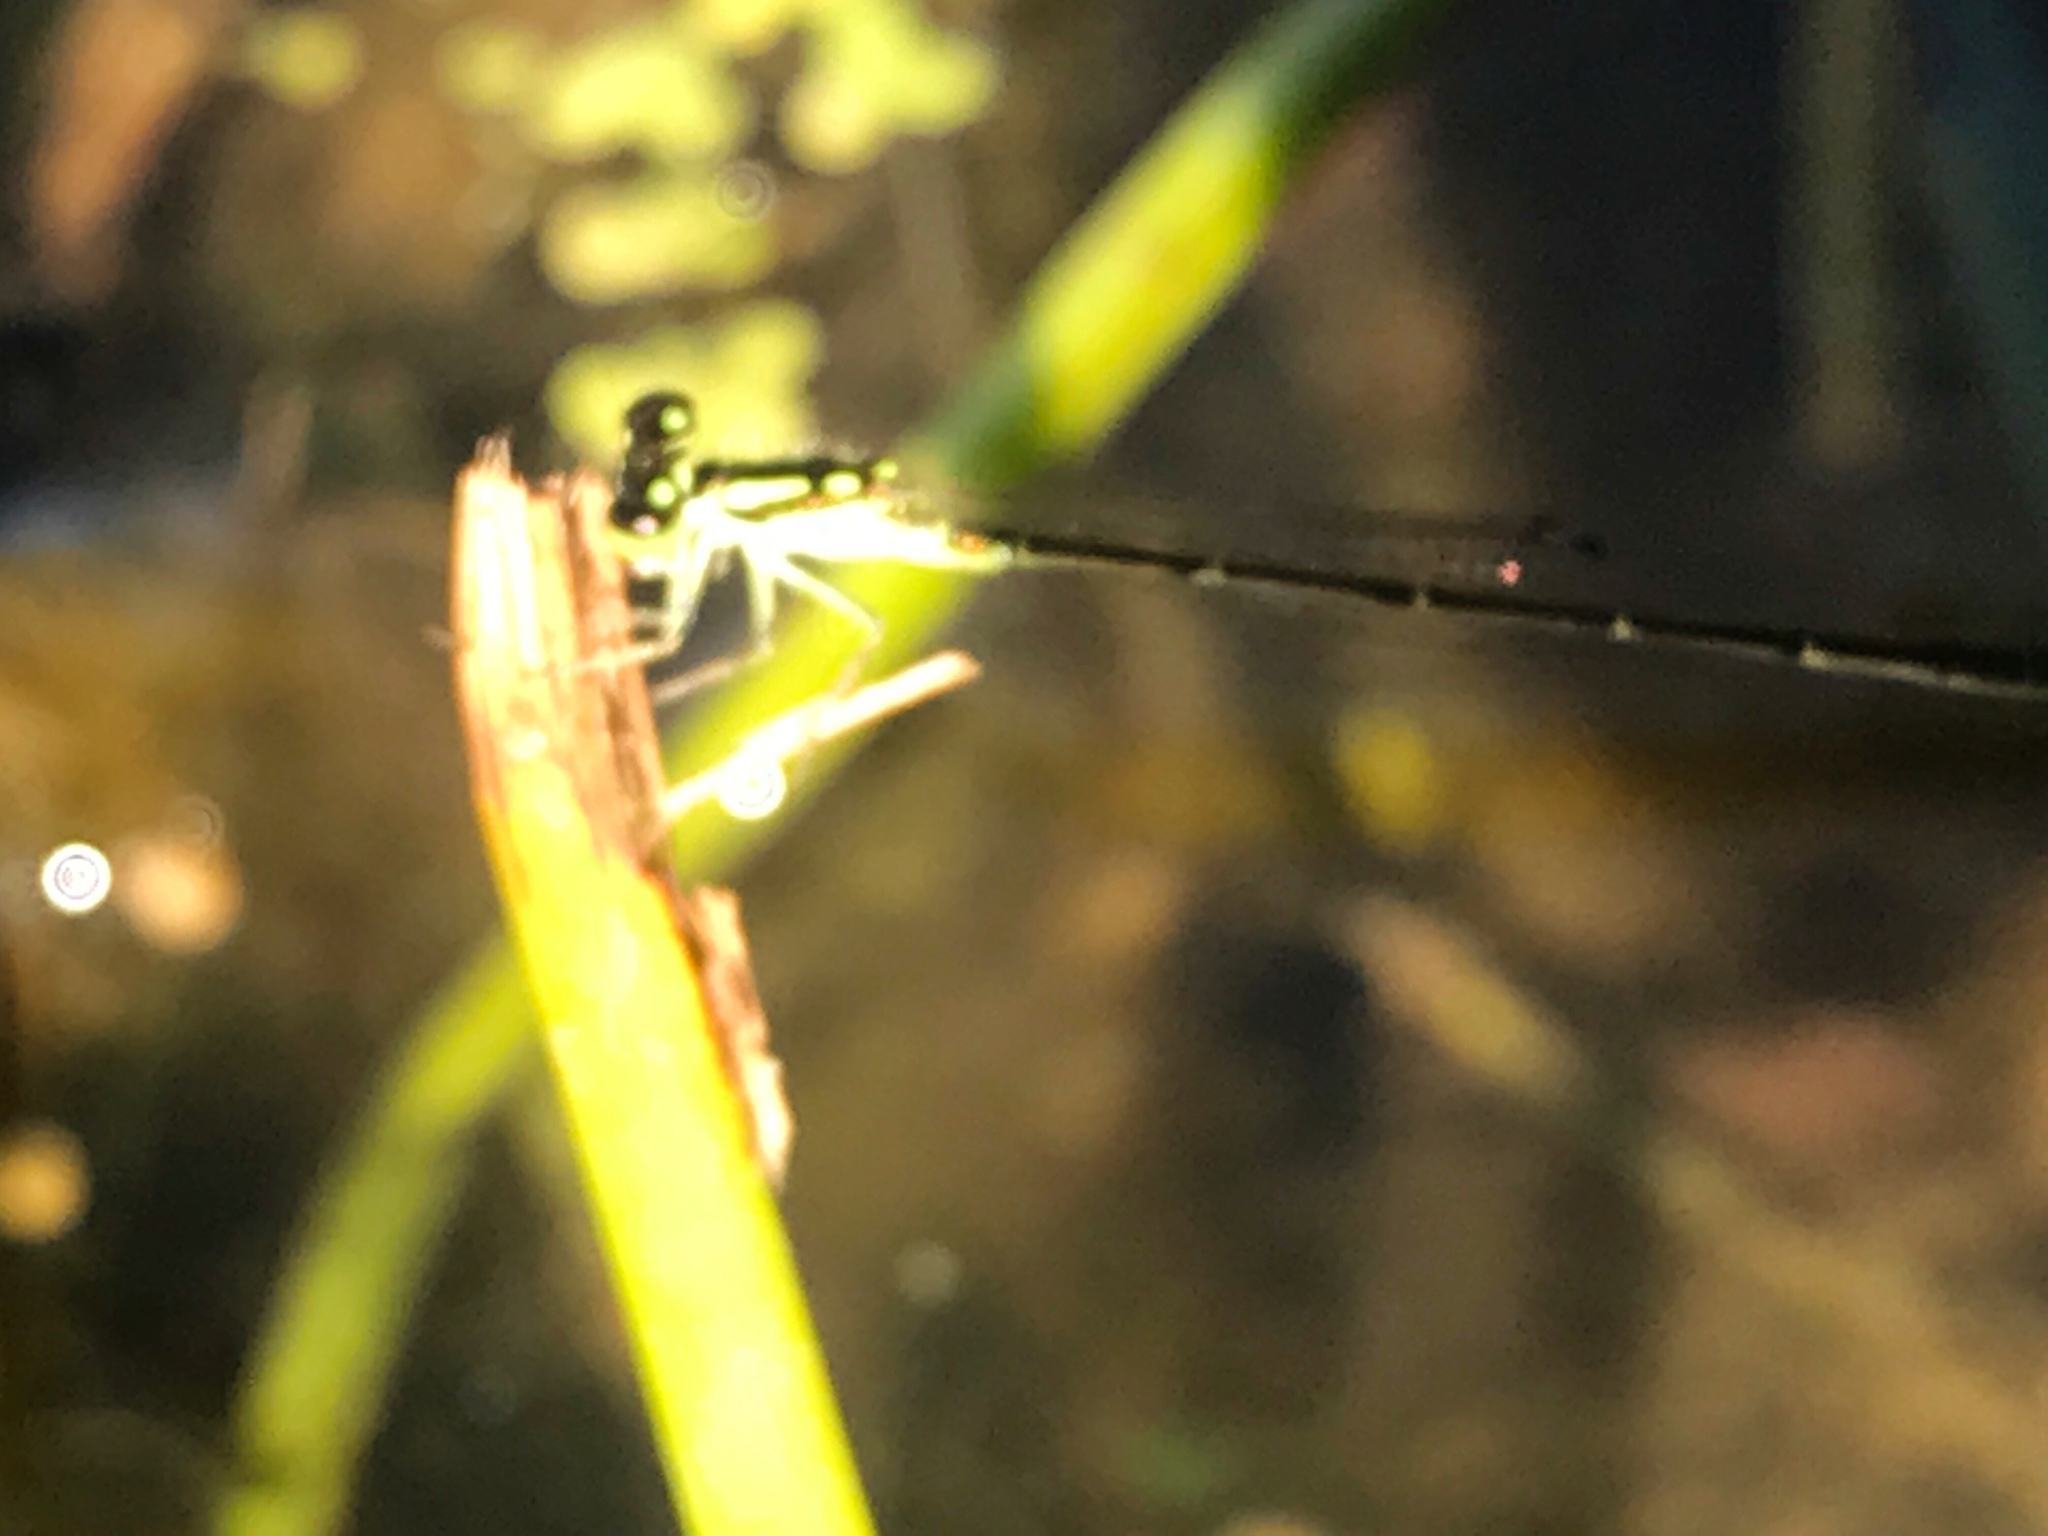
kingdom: Animalia
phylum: Arthropoda
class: Insecta
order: Odonata
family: Coenagrionidae
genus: Ischnura
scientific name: Ischnura posita
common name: Fragile forktail
